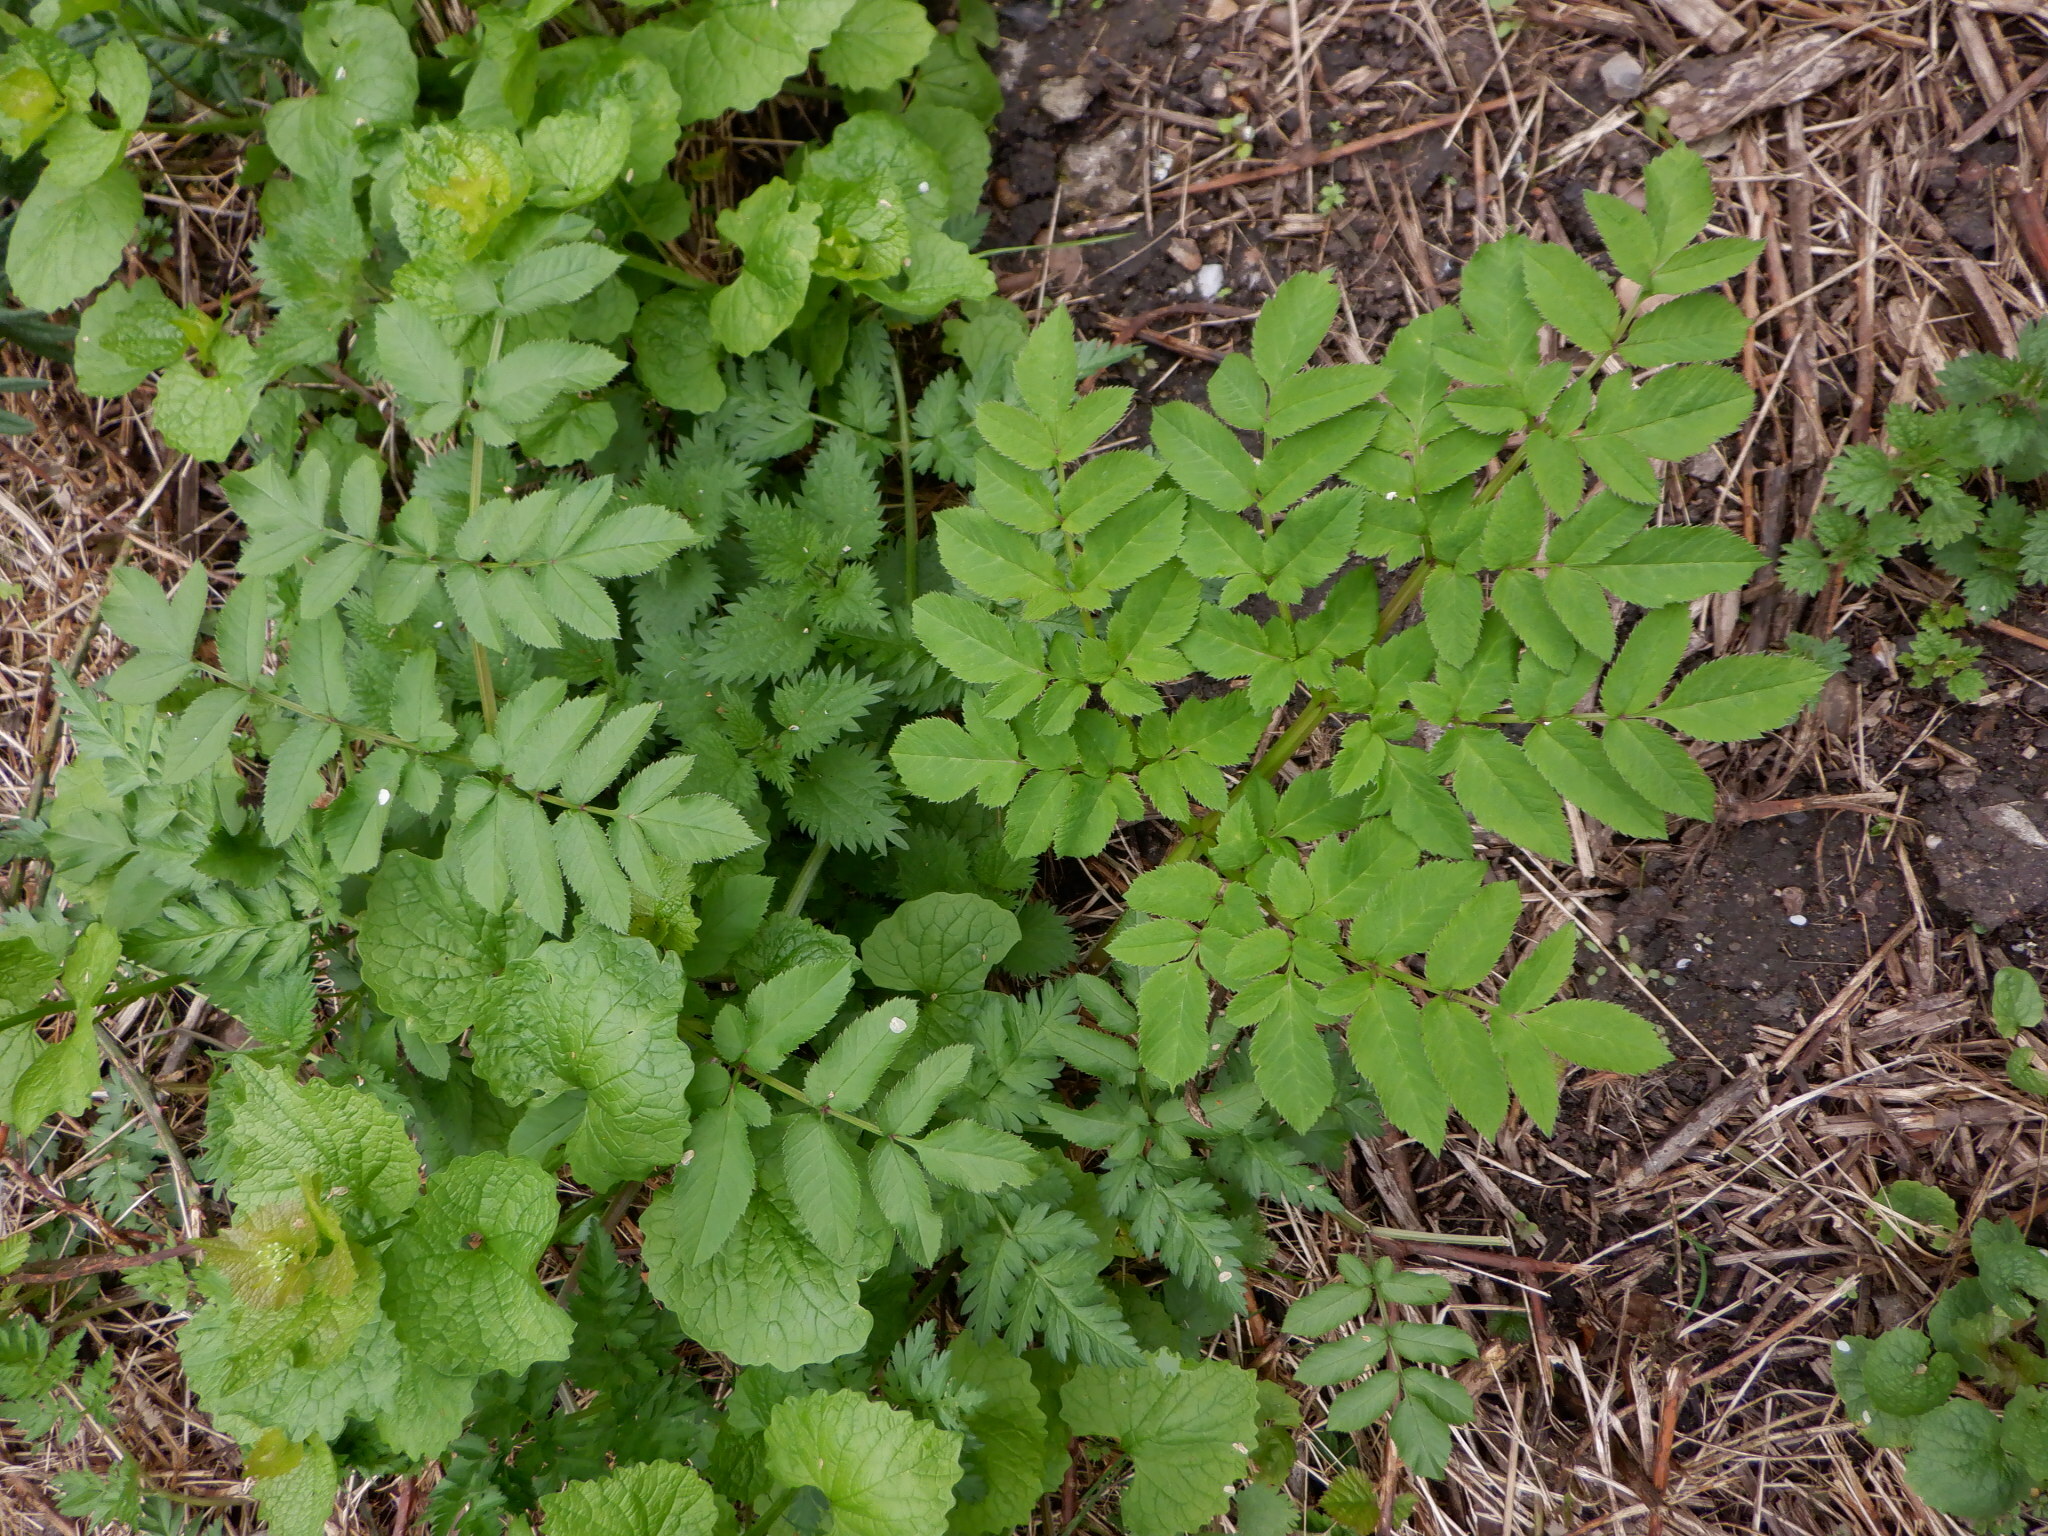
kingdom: Plantae
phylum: Tracheophyta
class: Magnoliopsida
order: Apiales
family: Apiaceae
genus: Angelica
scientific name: Angelica sylvestris
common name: Wild angelica
